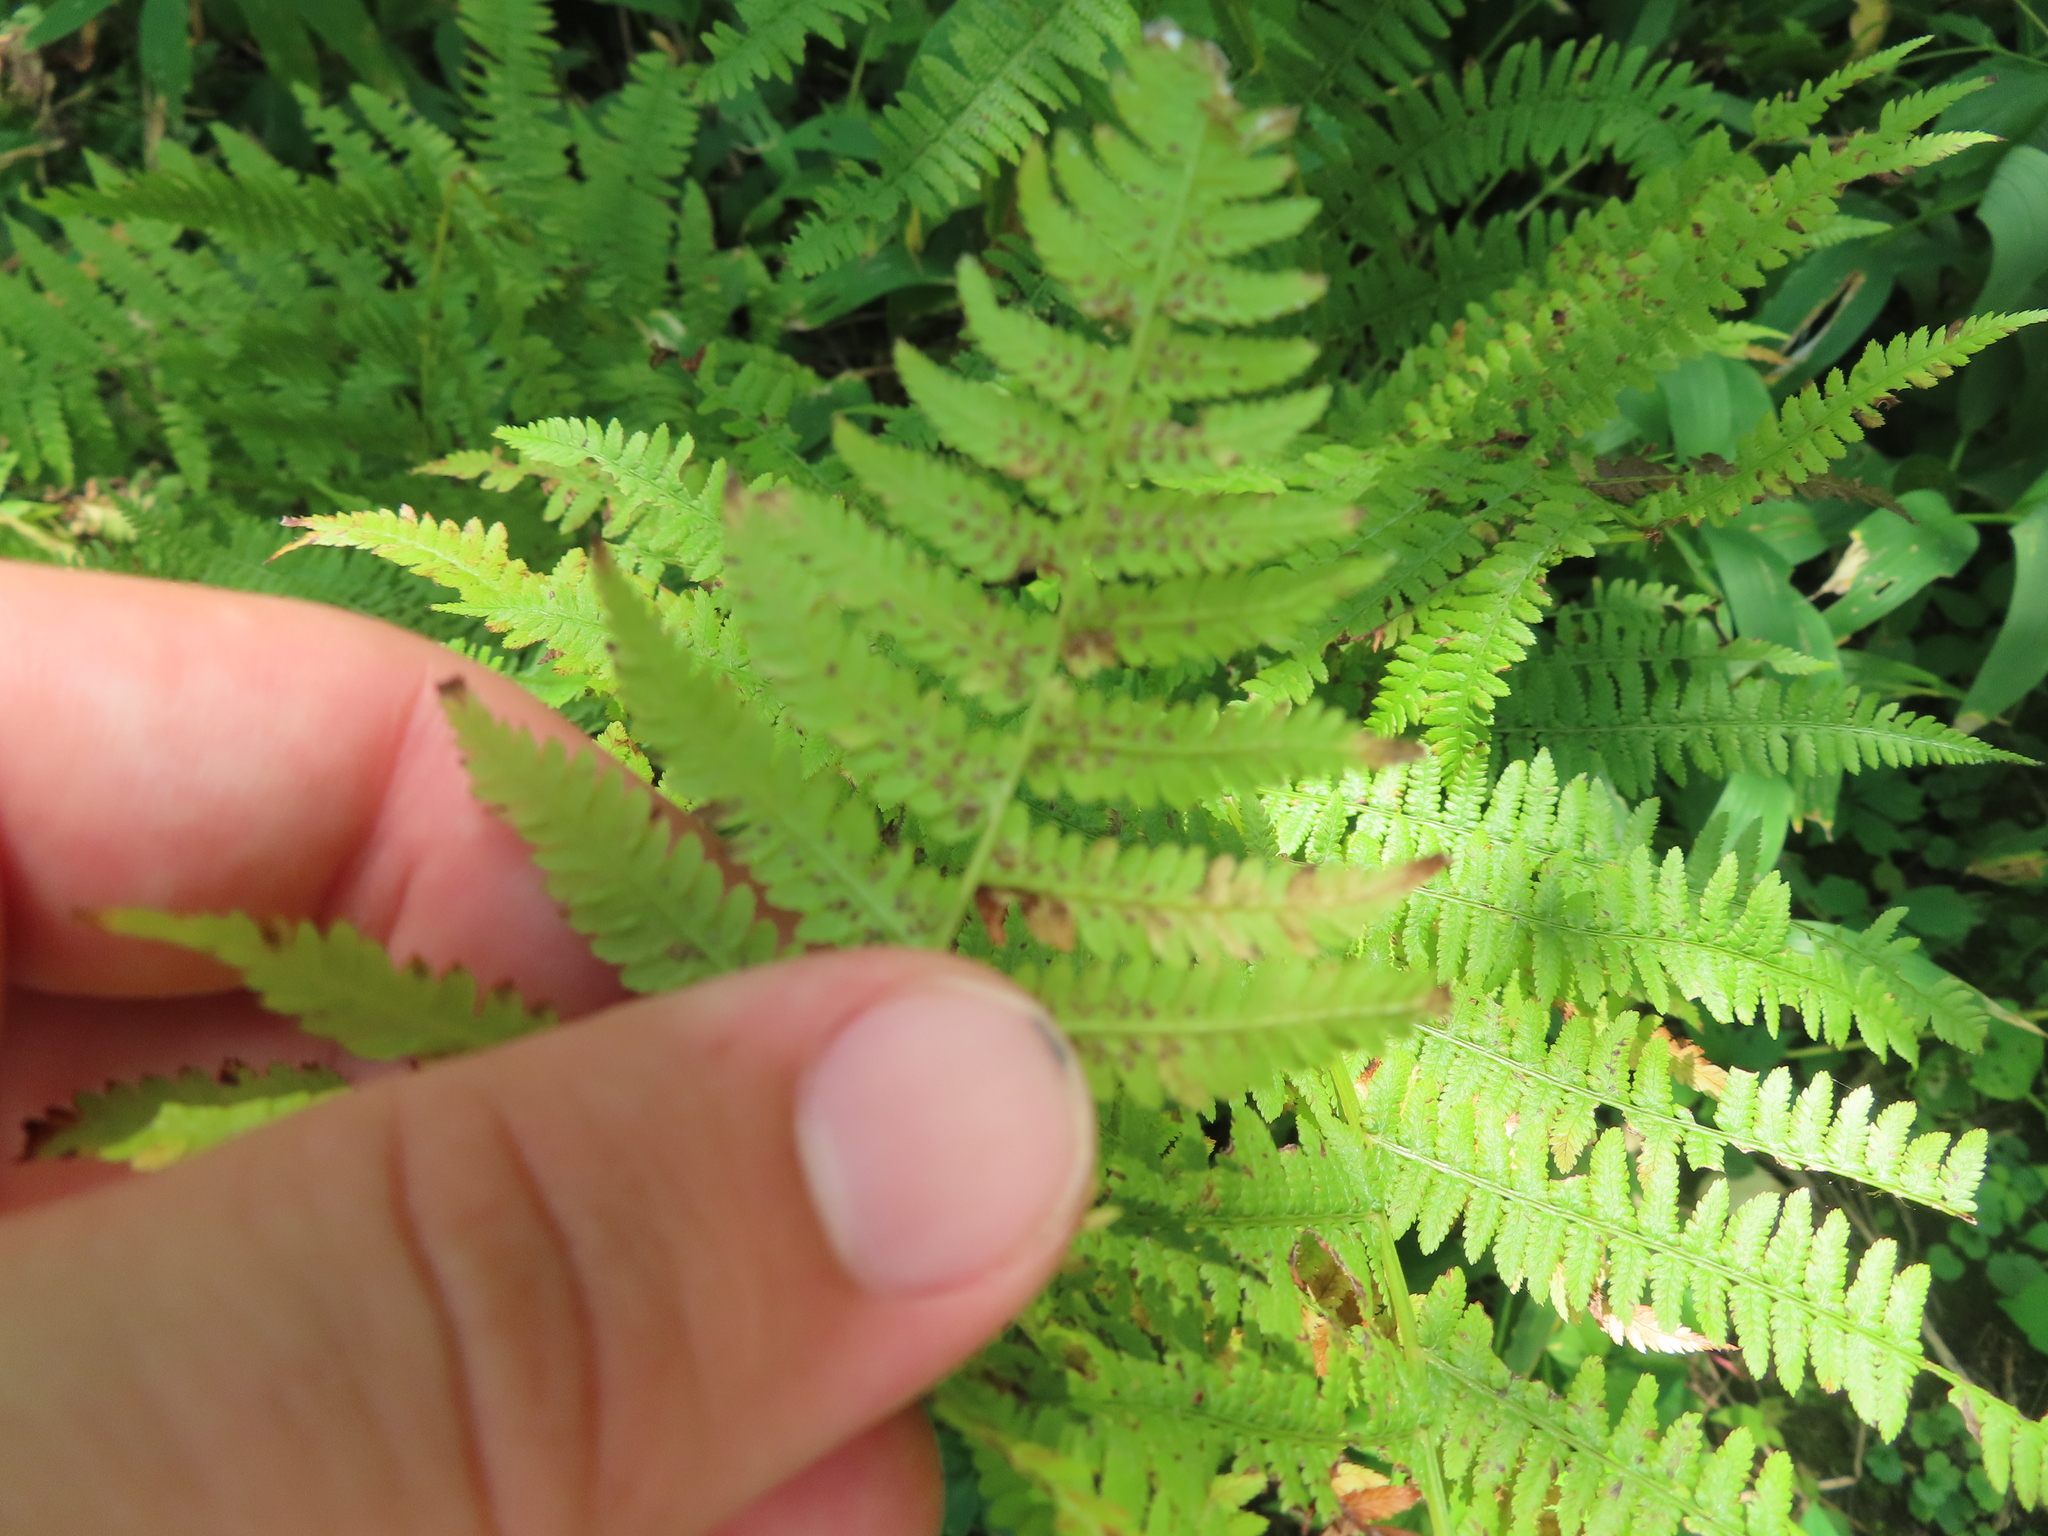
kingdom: Plantae
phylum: Tracheophyta
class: Polypodiopsida
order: Polypodiales
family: Athyriaceae
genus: Athyrium
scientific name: Athyrium angustum
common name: Northern lady fern
